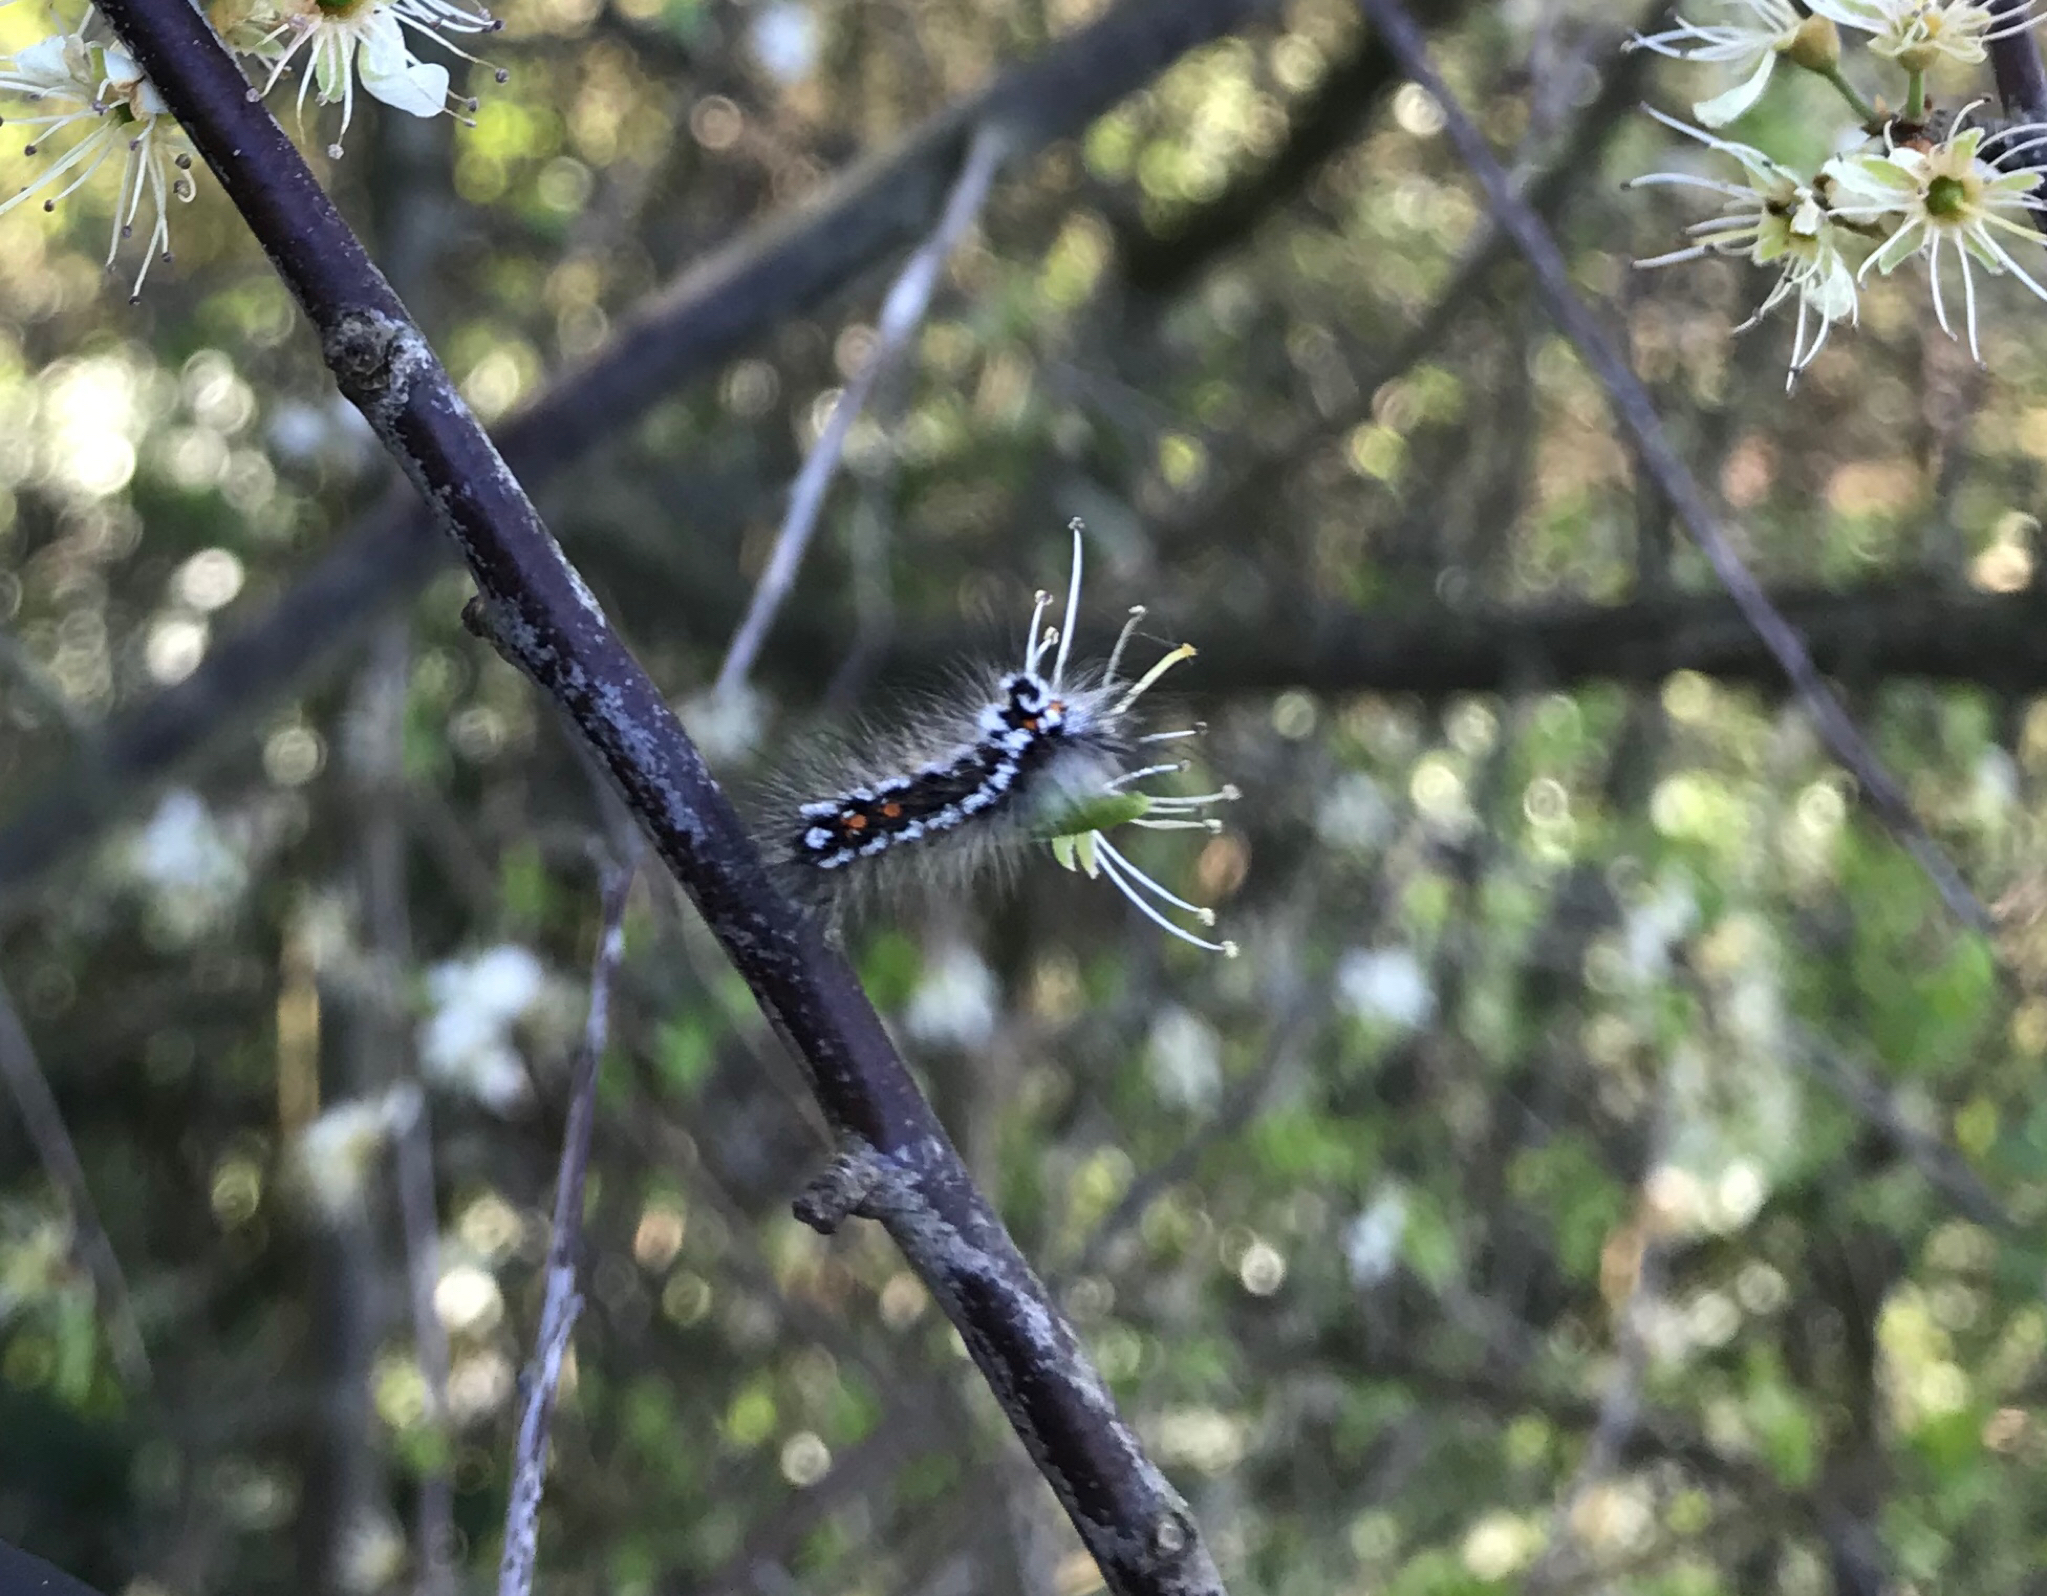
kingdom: Animalia
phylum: Arthropoda
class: Insecta
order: Lepidoptera
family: Erebidae
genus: Sphrageidus
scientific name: Sphrageidus similis
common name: Yellow-tail
